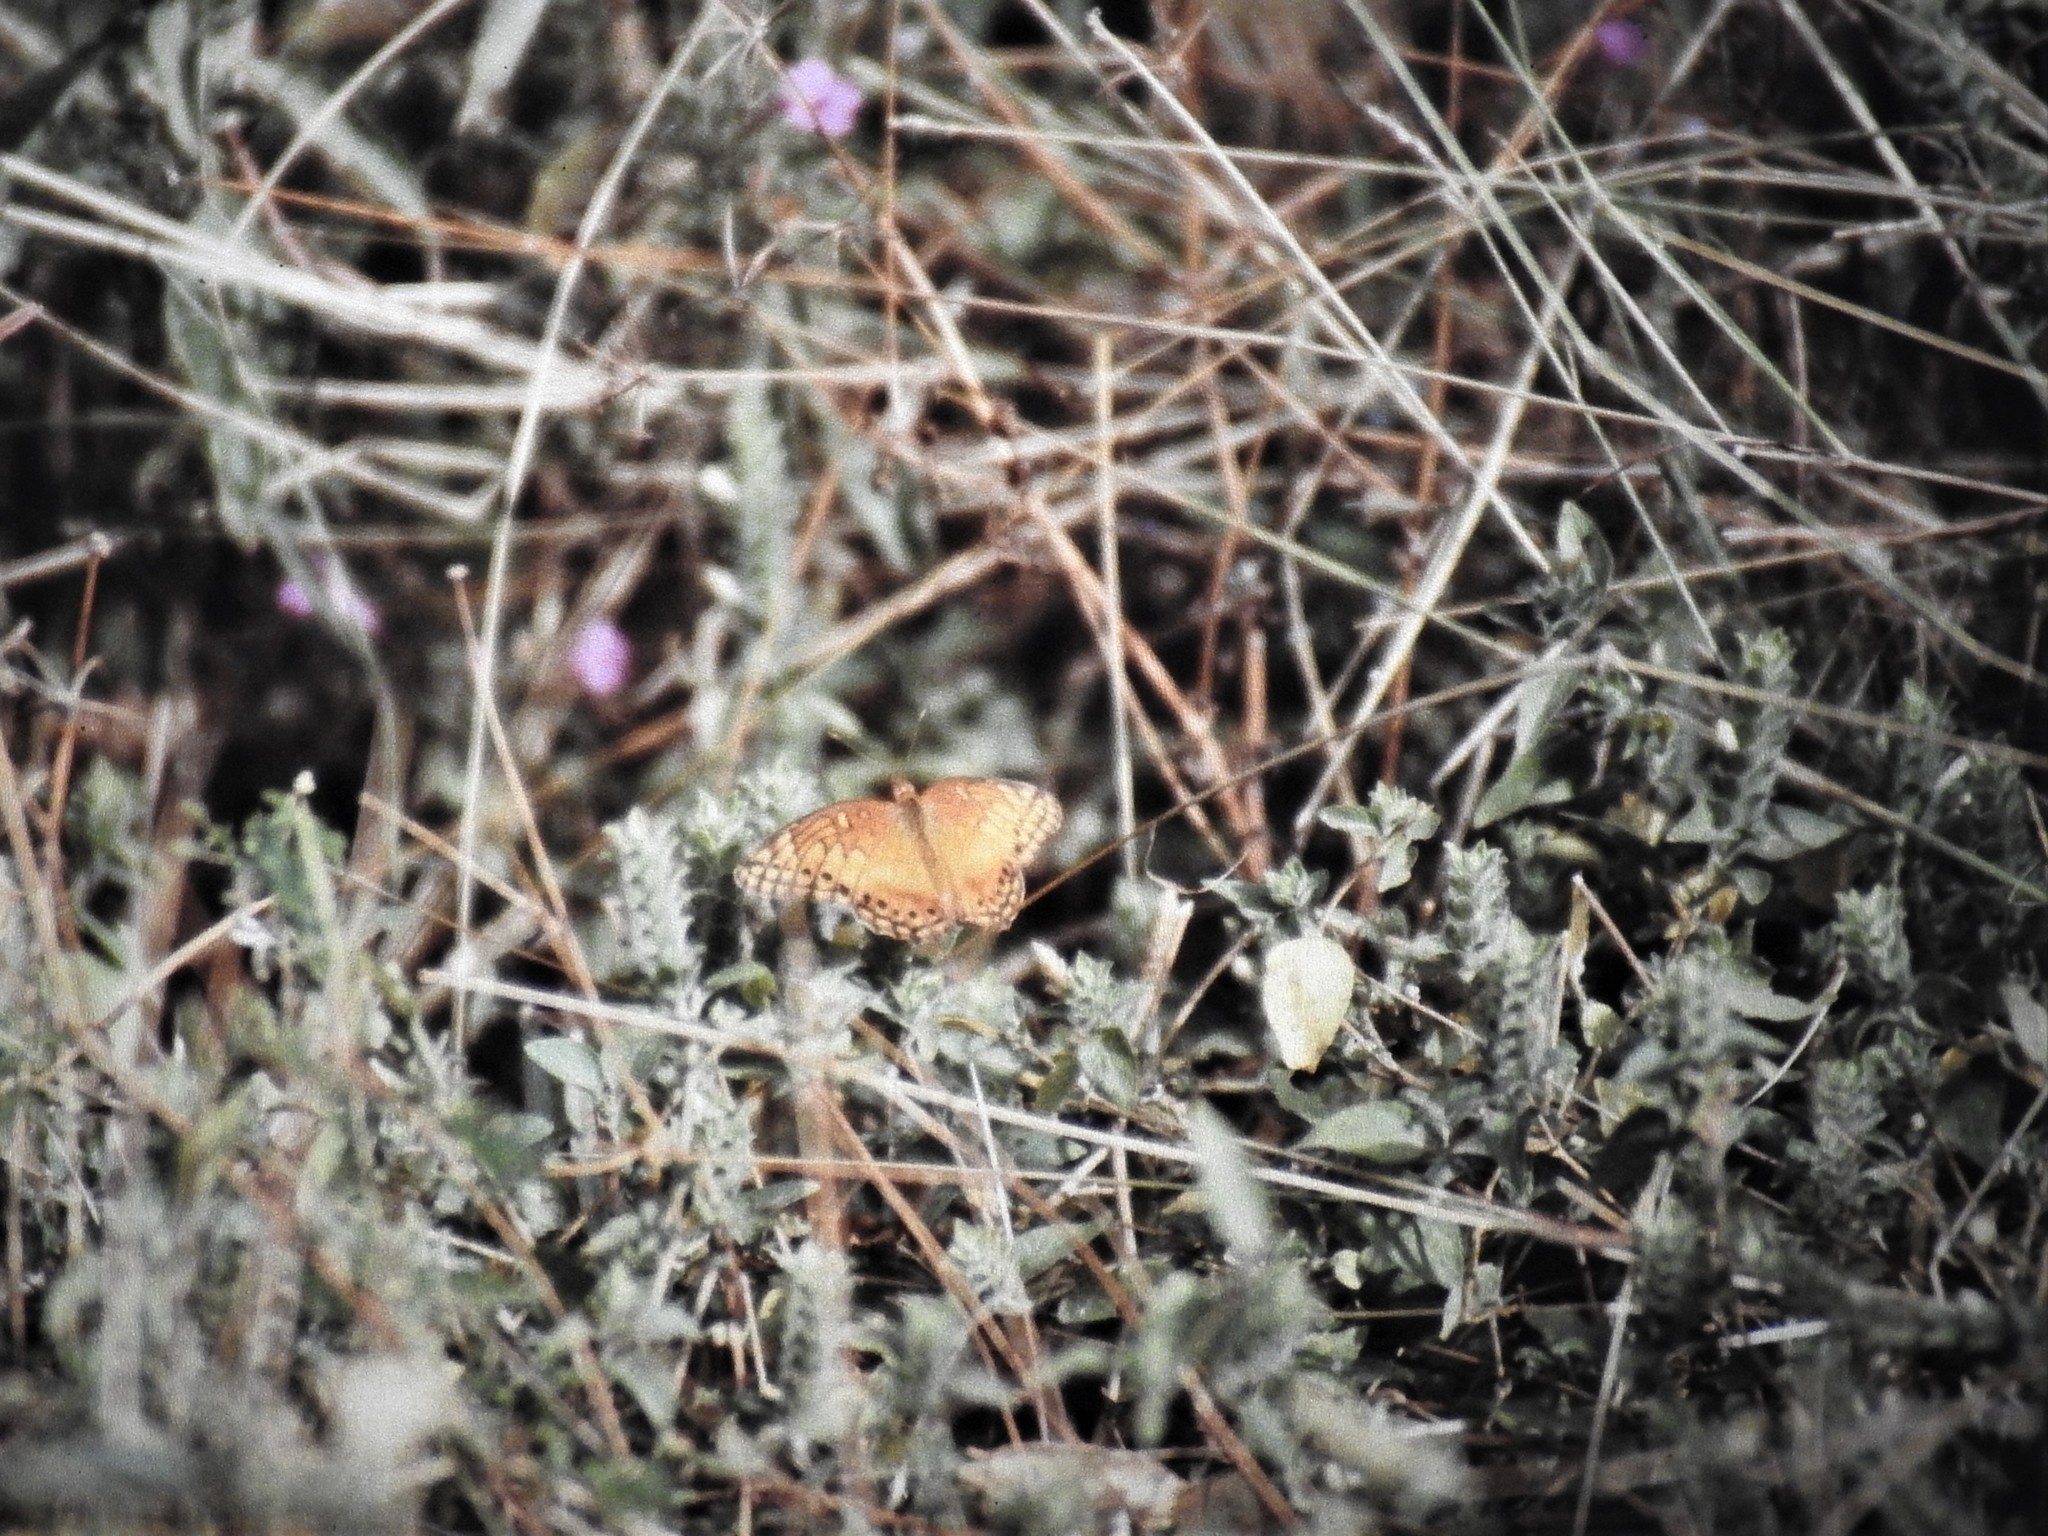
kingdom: Animalia
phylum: Arthropoda
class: Insecta
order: Lepidoptera
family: Nymphalidae
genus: Euptoieta
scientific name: Euptoieta hegesia
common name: Mexican fritillary
